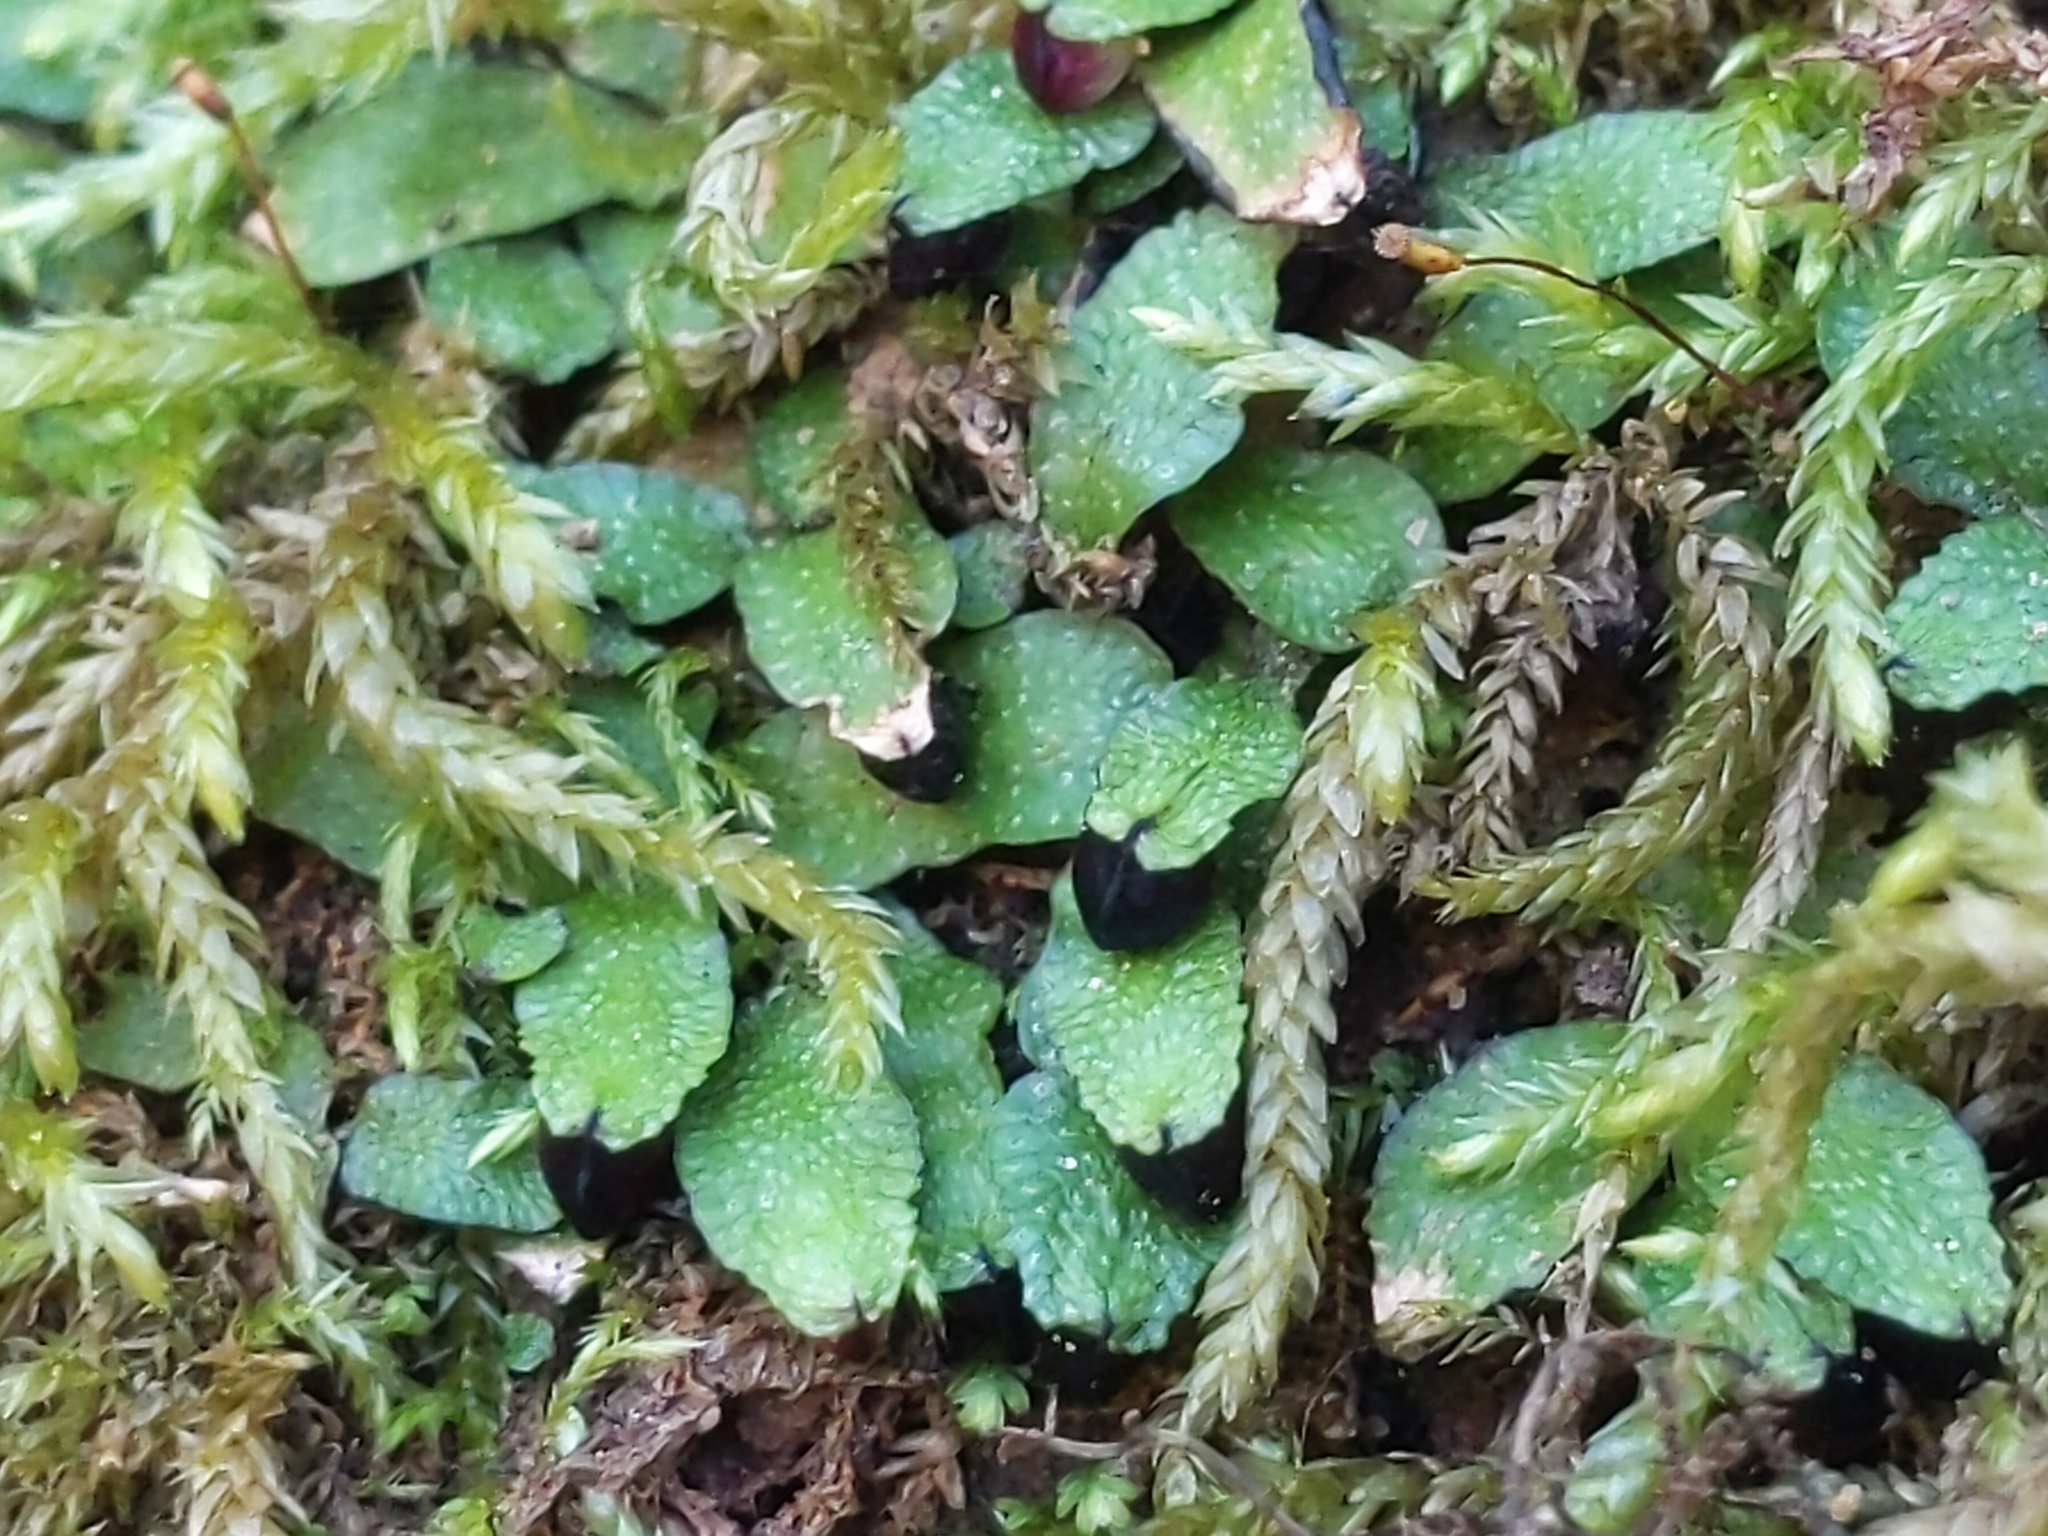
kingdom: Plantae
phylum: Marchantiophyta
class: Marchantiopsida
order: Marchantiales
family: Targioniaceae
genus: Targionia
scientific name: Targionia hypophylla
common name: Orobus-seed liverwort
